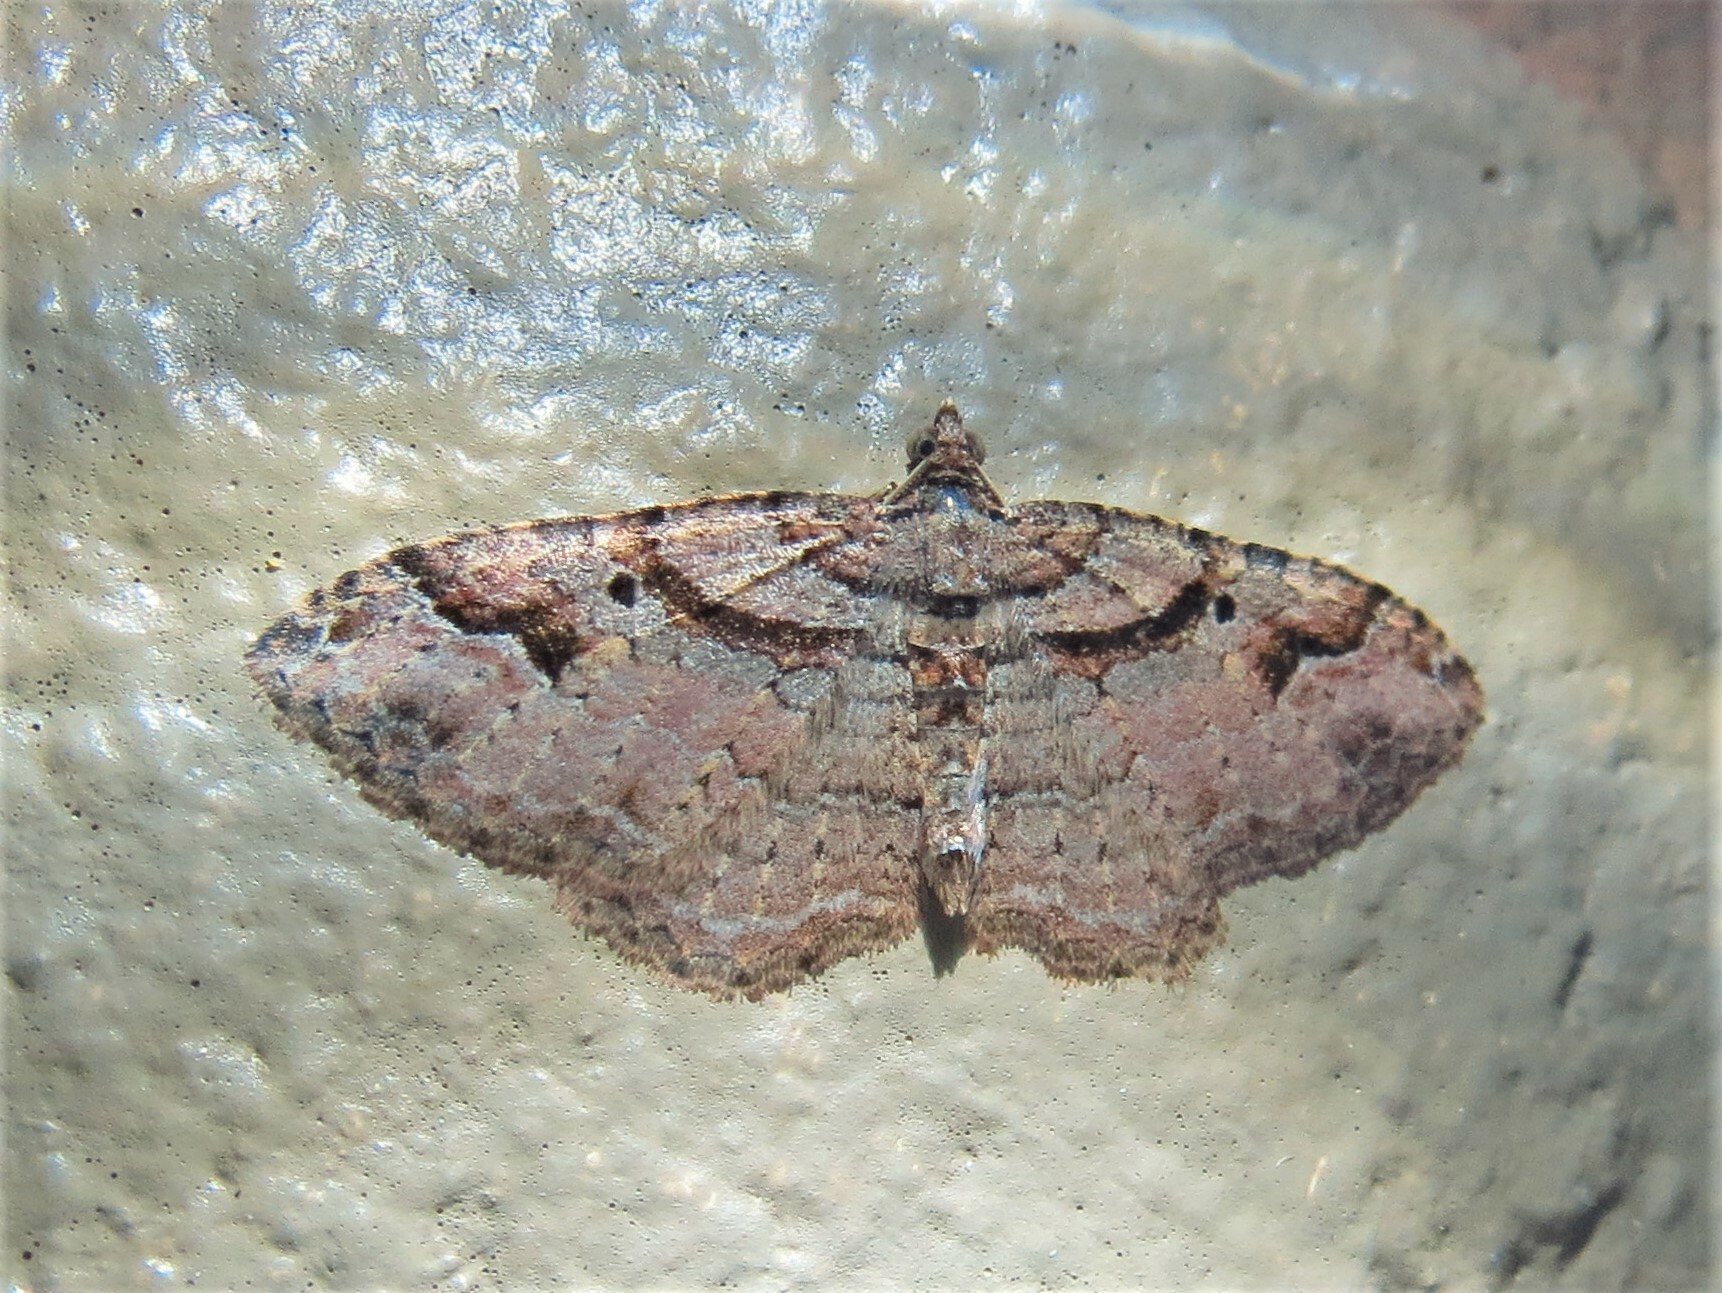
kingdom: Animalia
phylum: Arthropoda
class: Insecta
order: Lepidoptera
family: Geometridae
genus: Costaconvexa
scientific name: Costaconvexa centrostrigaria
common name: Bent-line carpet
